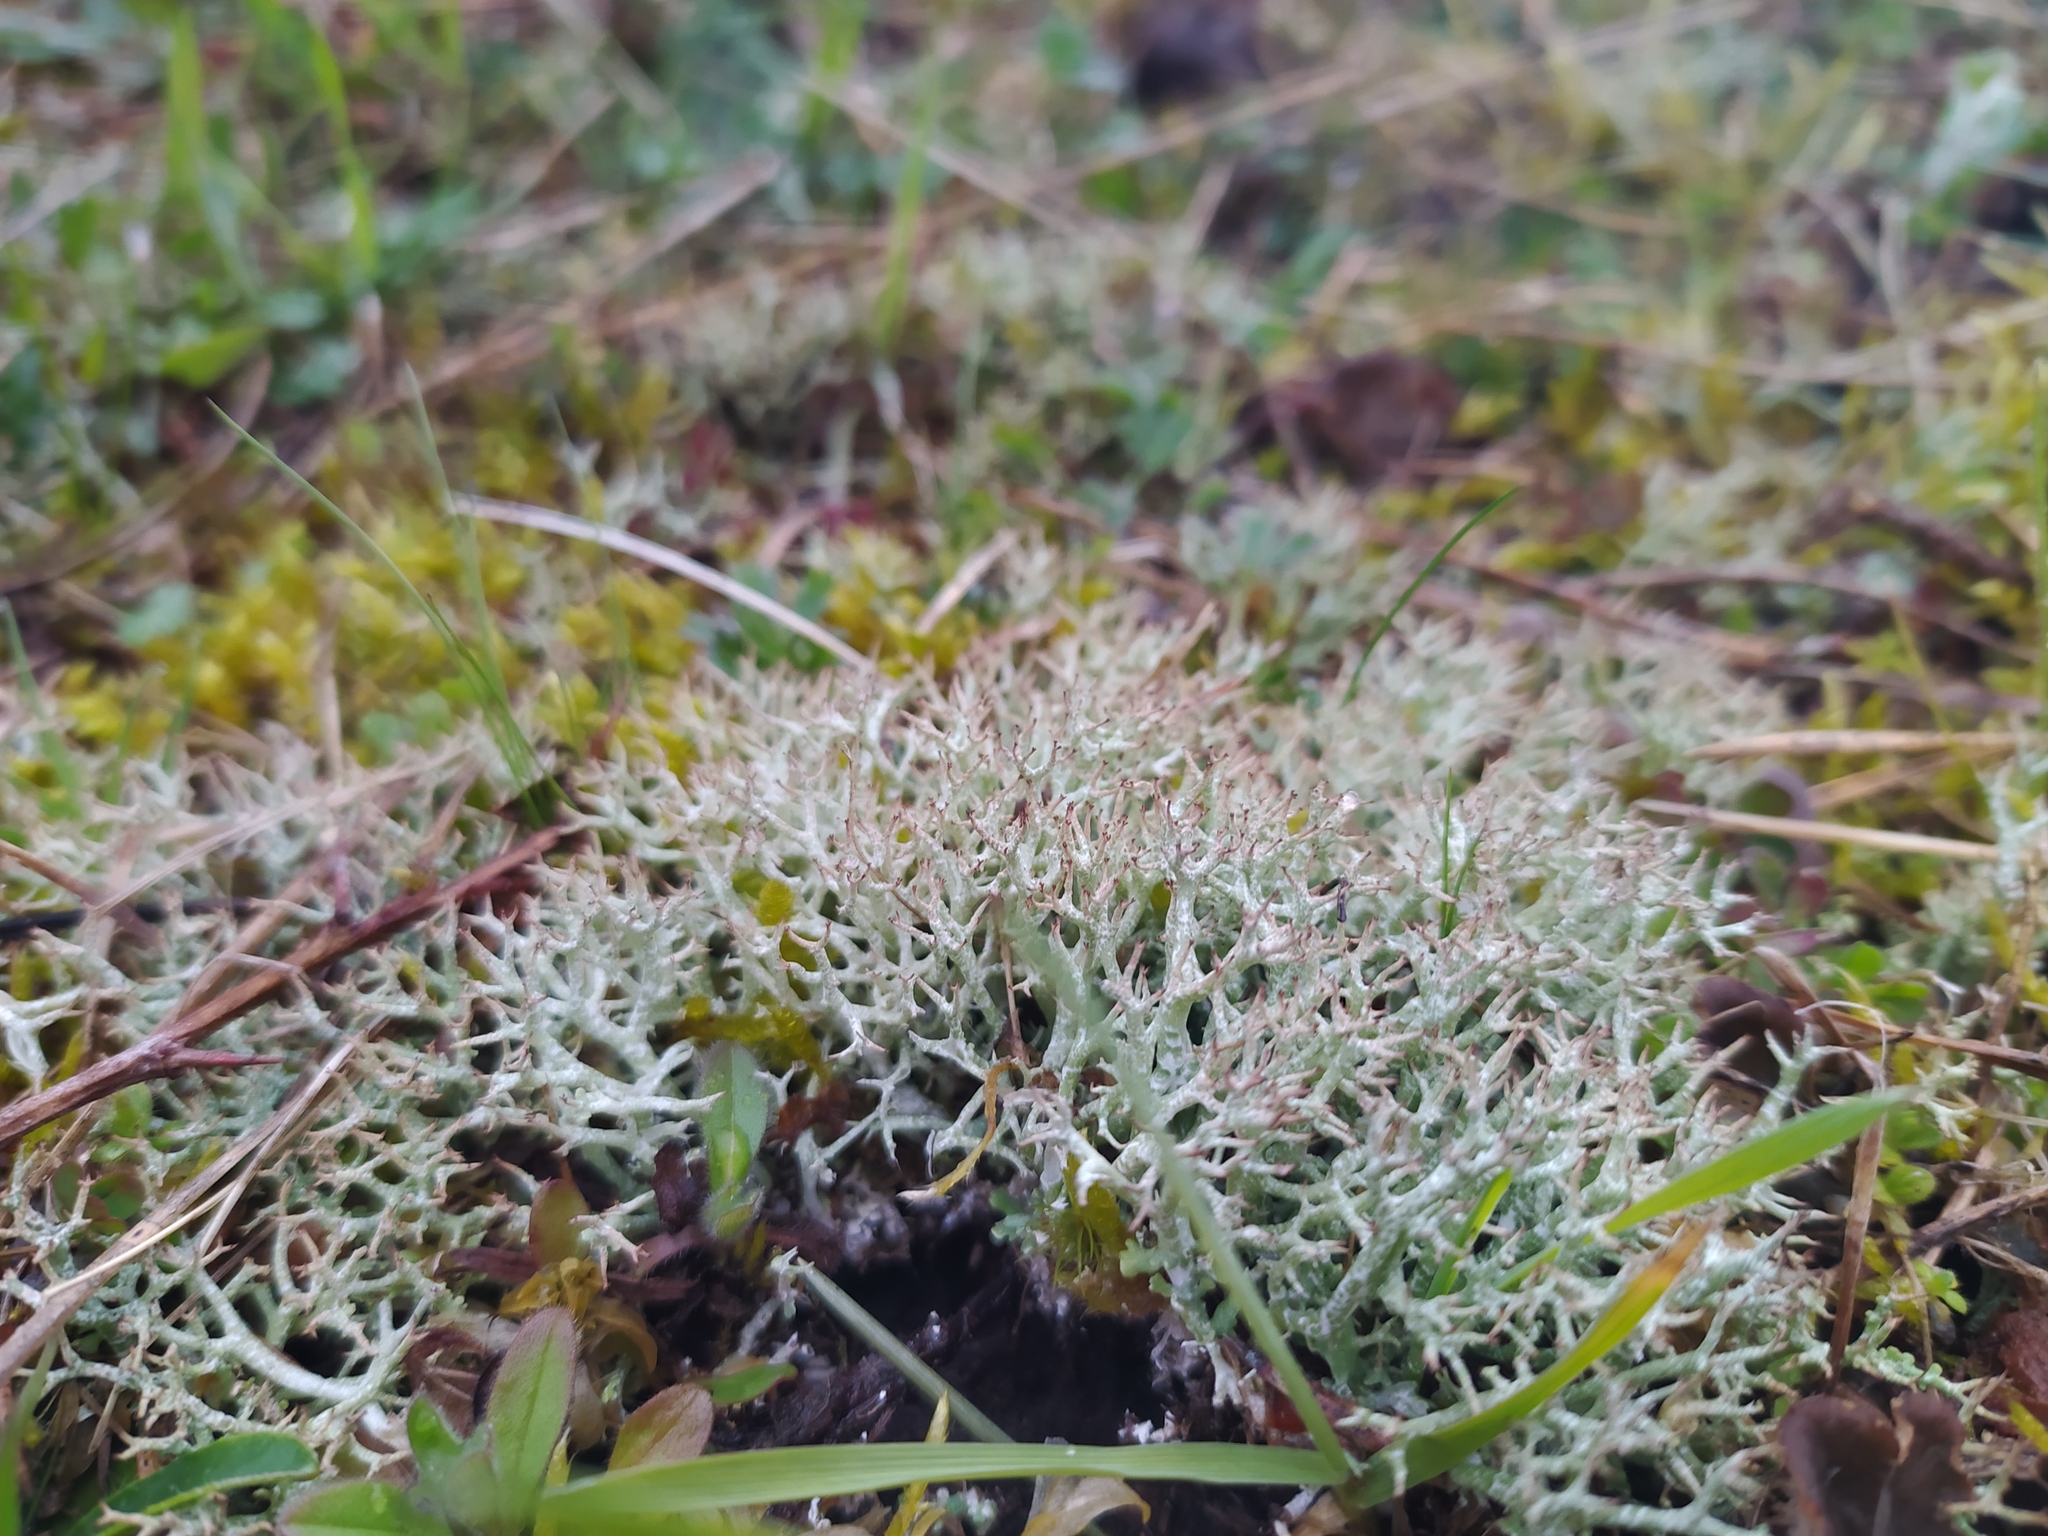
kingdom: Fungi
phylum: Ascomycota
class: Lecanoromycetes
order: Lecanorales
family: Cladoniaceae
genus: Cladonia
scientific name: Cladonia rangiformis
